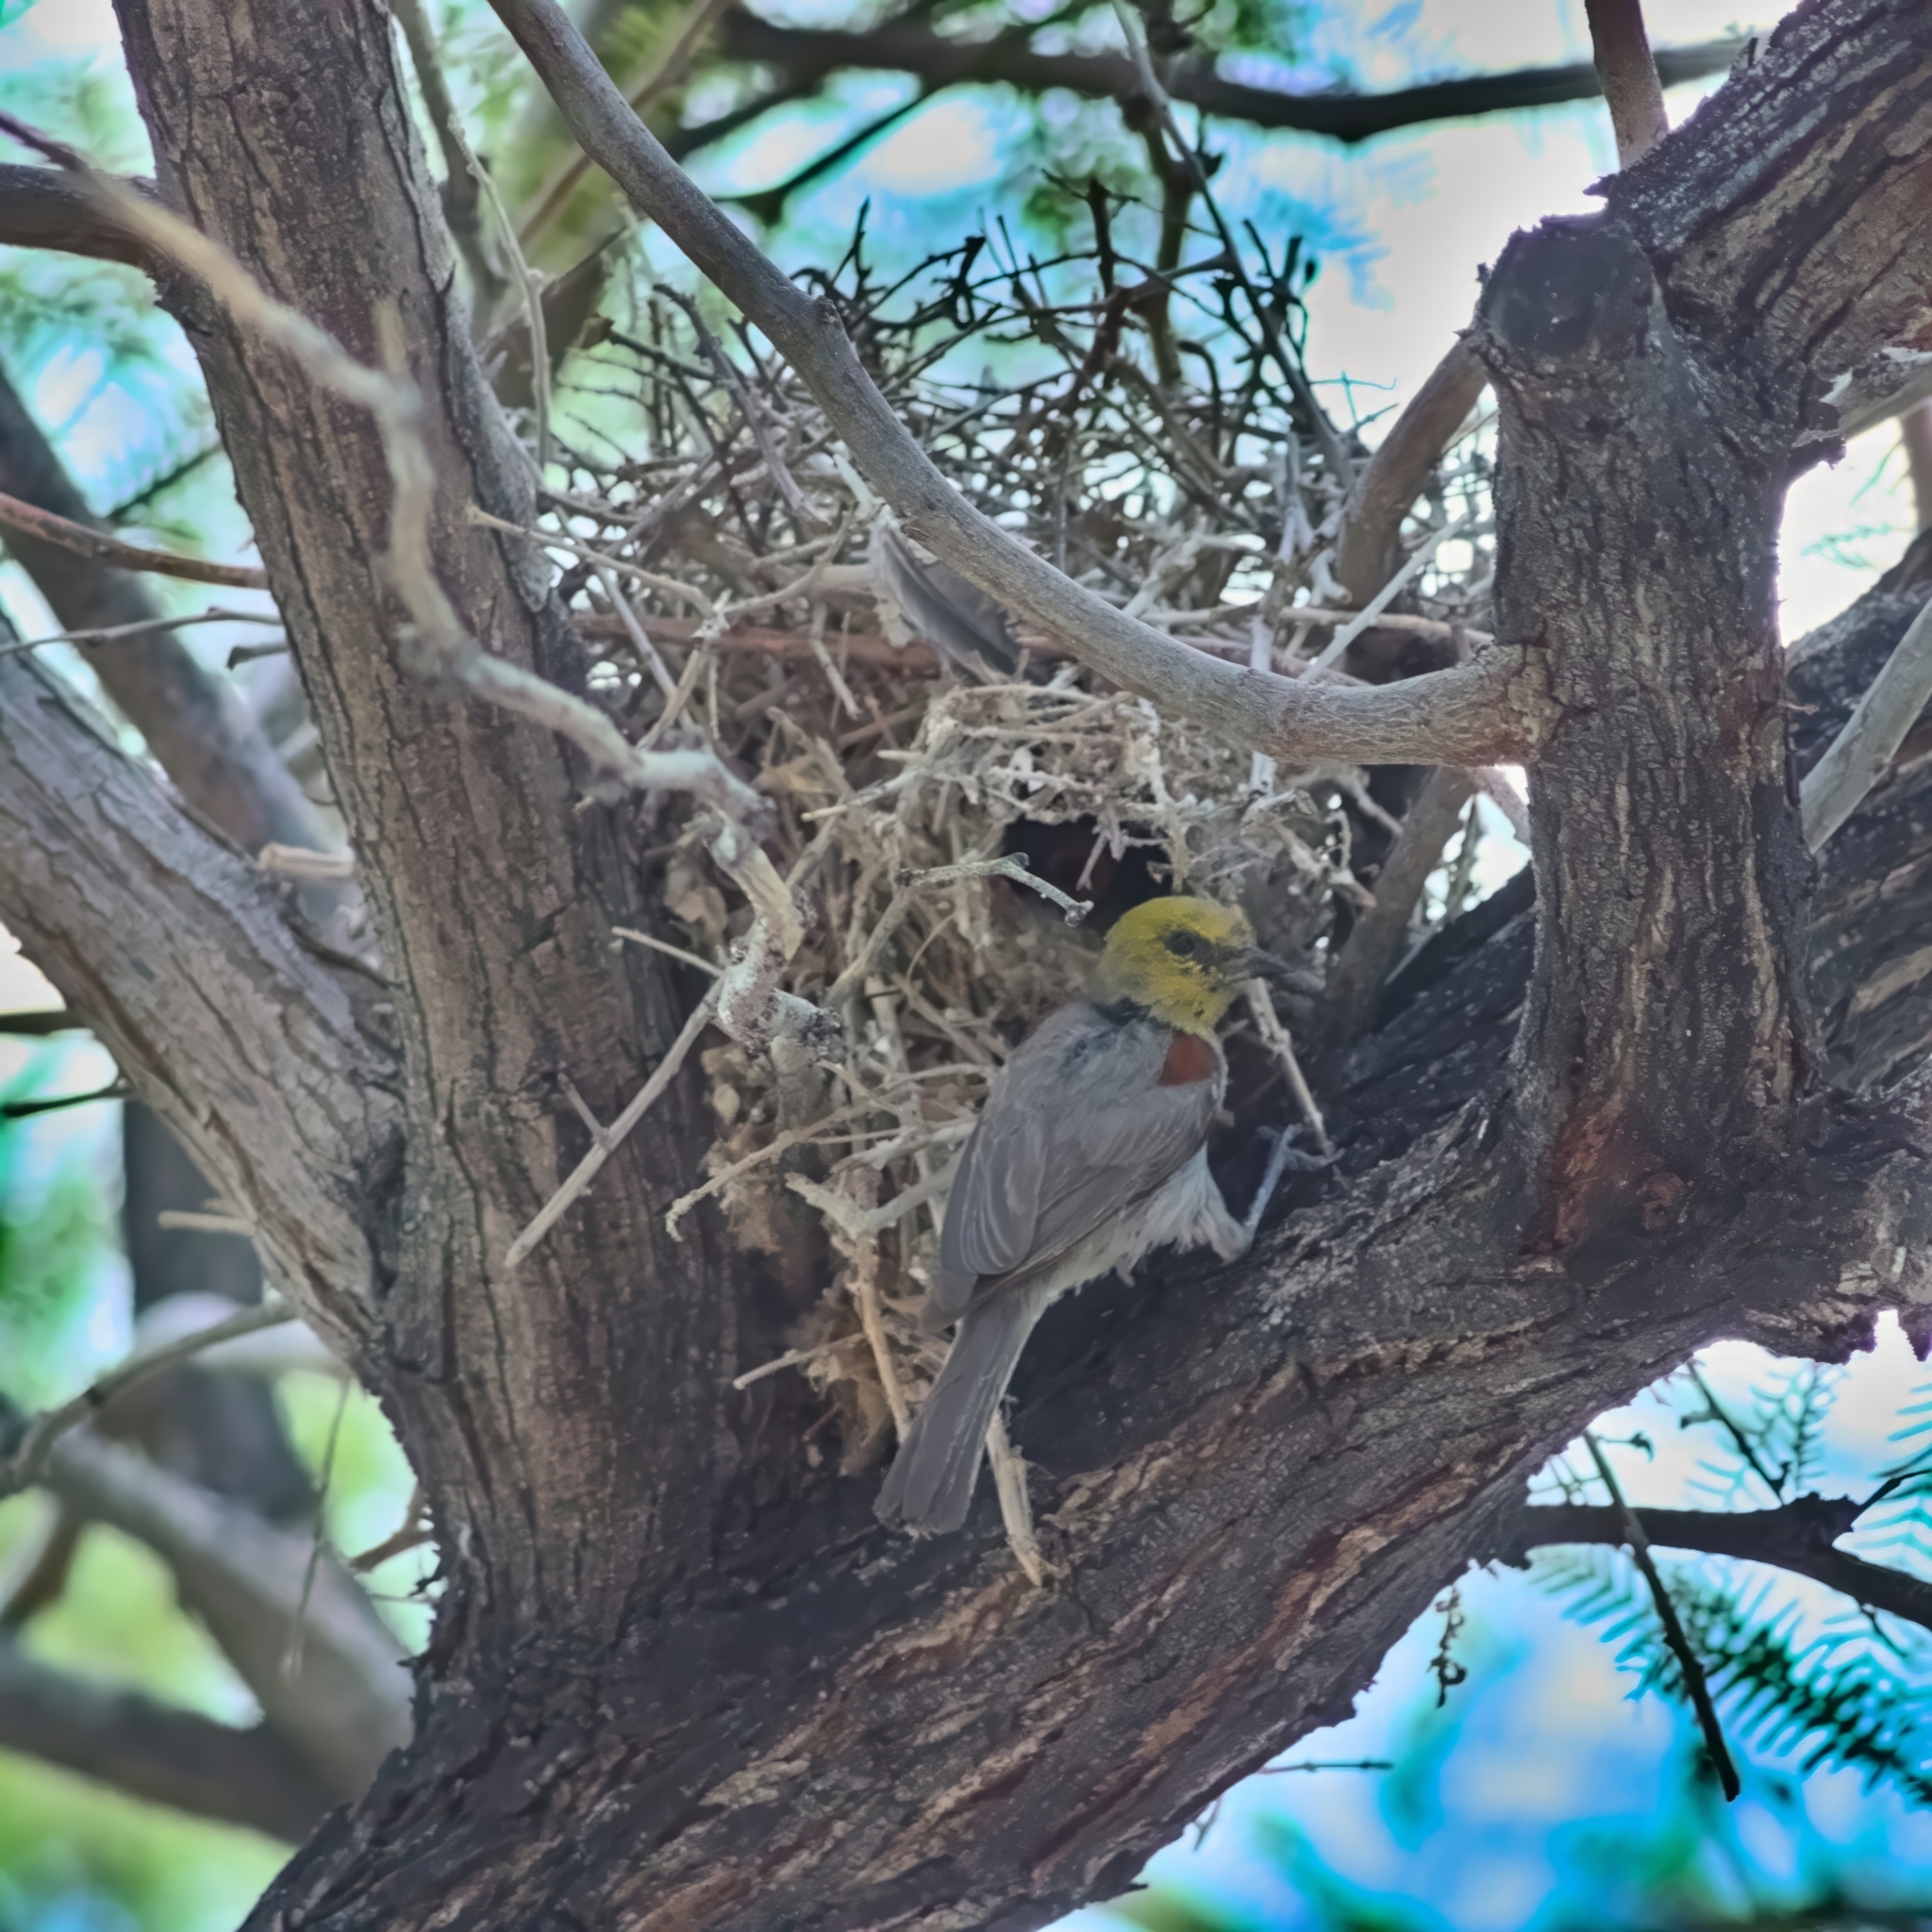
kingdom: Animalia
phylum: Chordata
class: Aves
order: Passeriformes
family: Remizidae
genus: Auriparus
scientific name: Auriparus flaviceps
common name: Verdin
